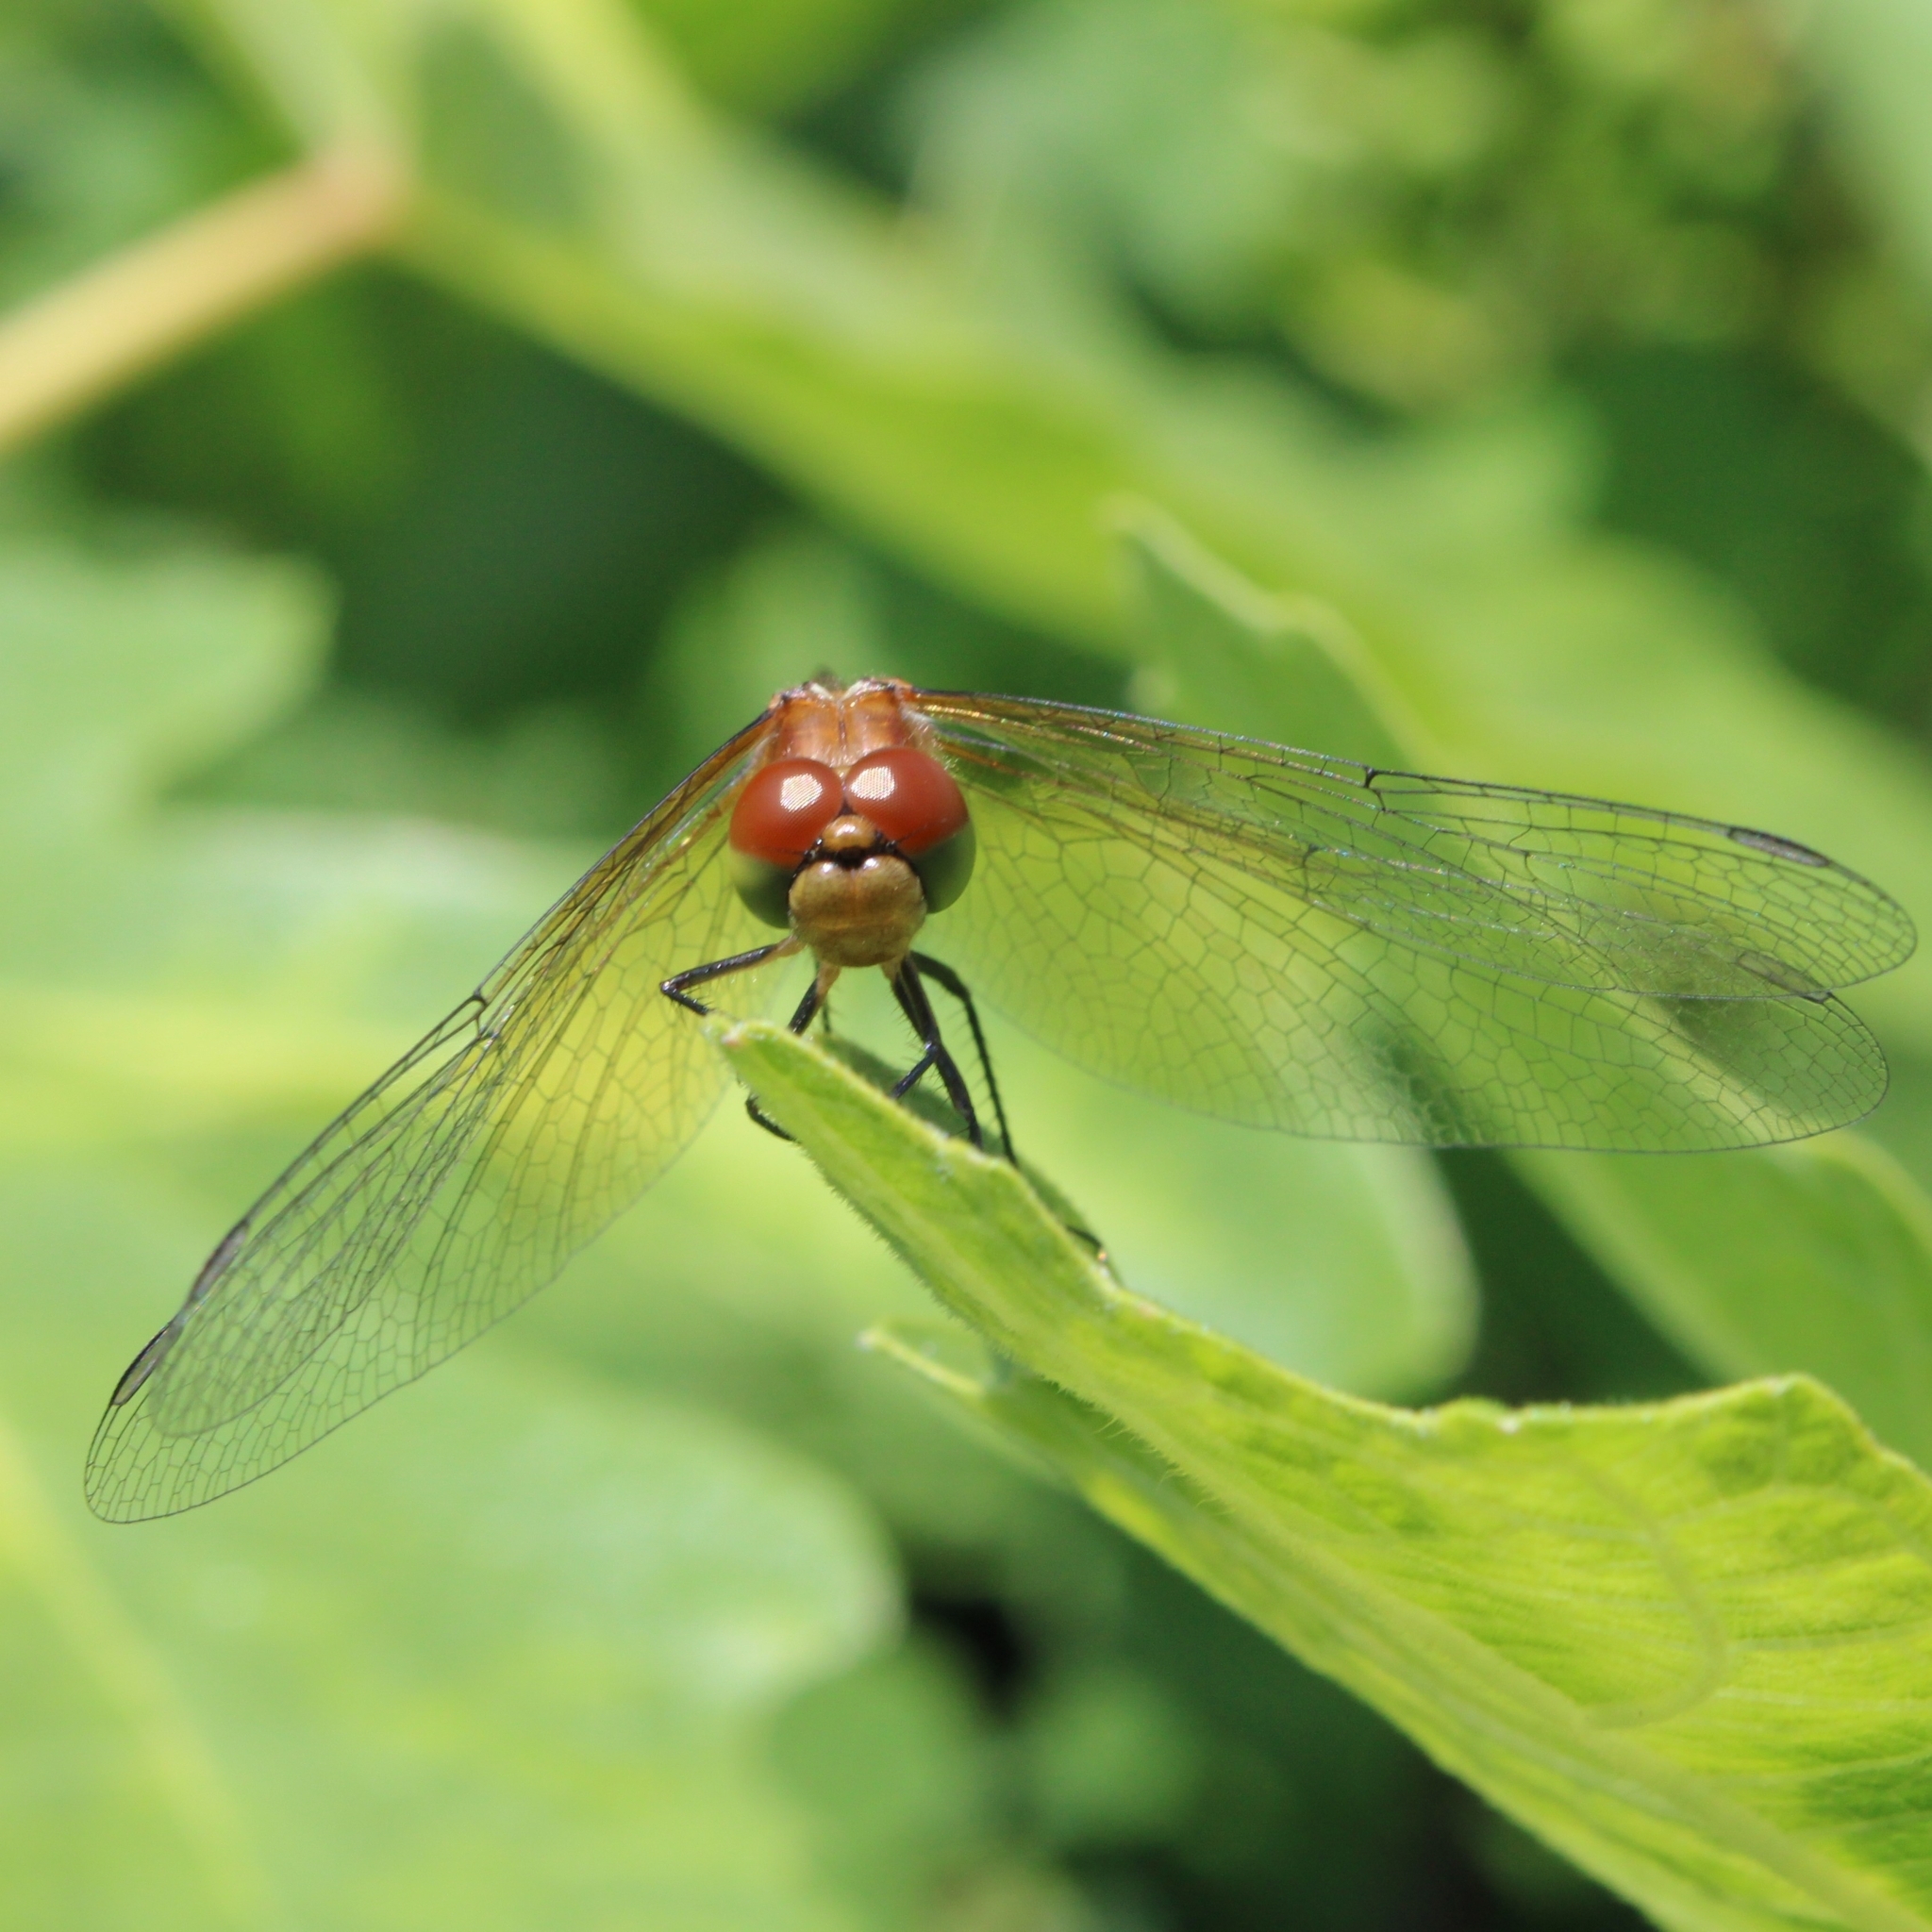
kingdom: Animalia
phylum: Arthropoda
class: Insecta
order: Odonata
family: Libellulidae
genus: Sympetrum
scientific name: Sympetrum semicinctum
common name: Band-winged meadowhawk
